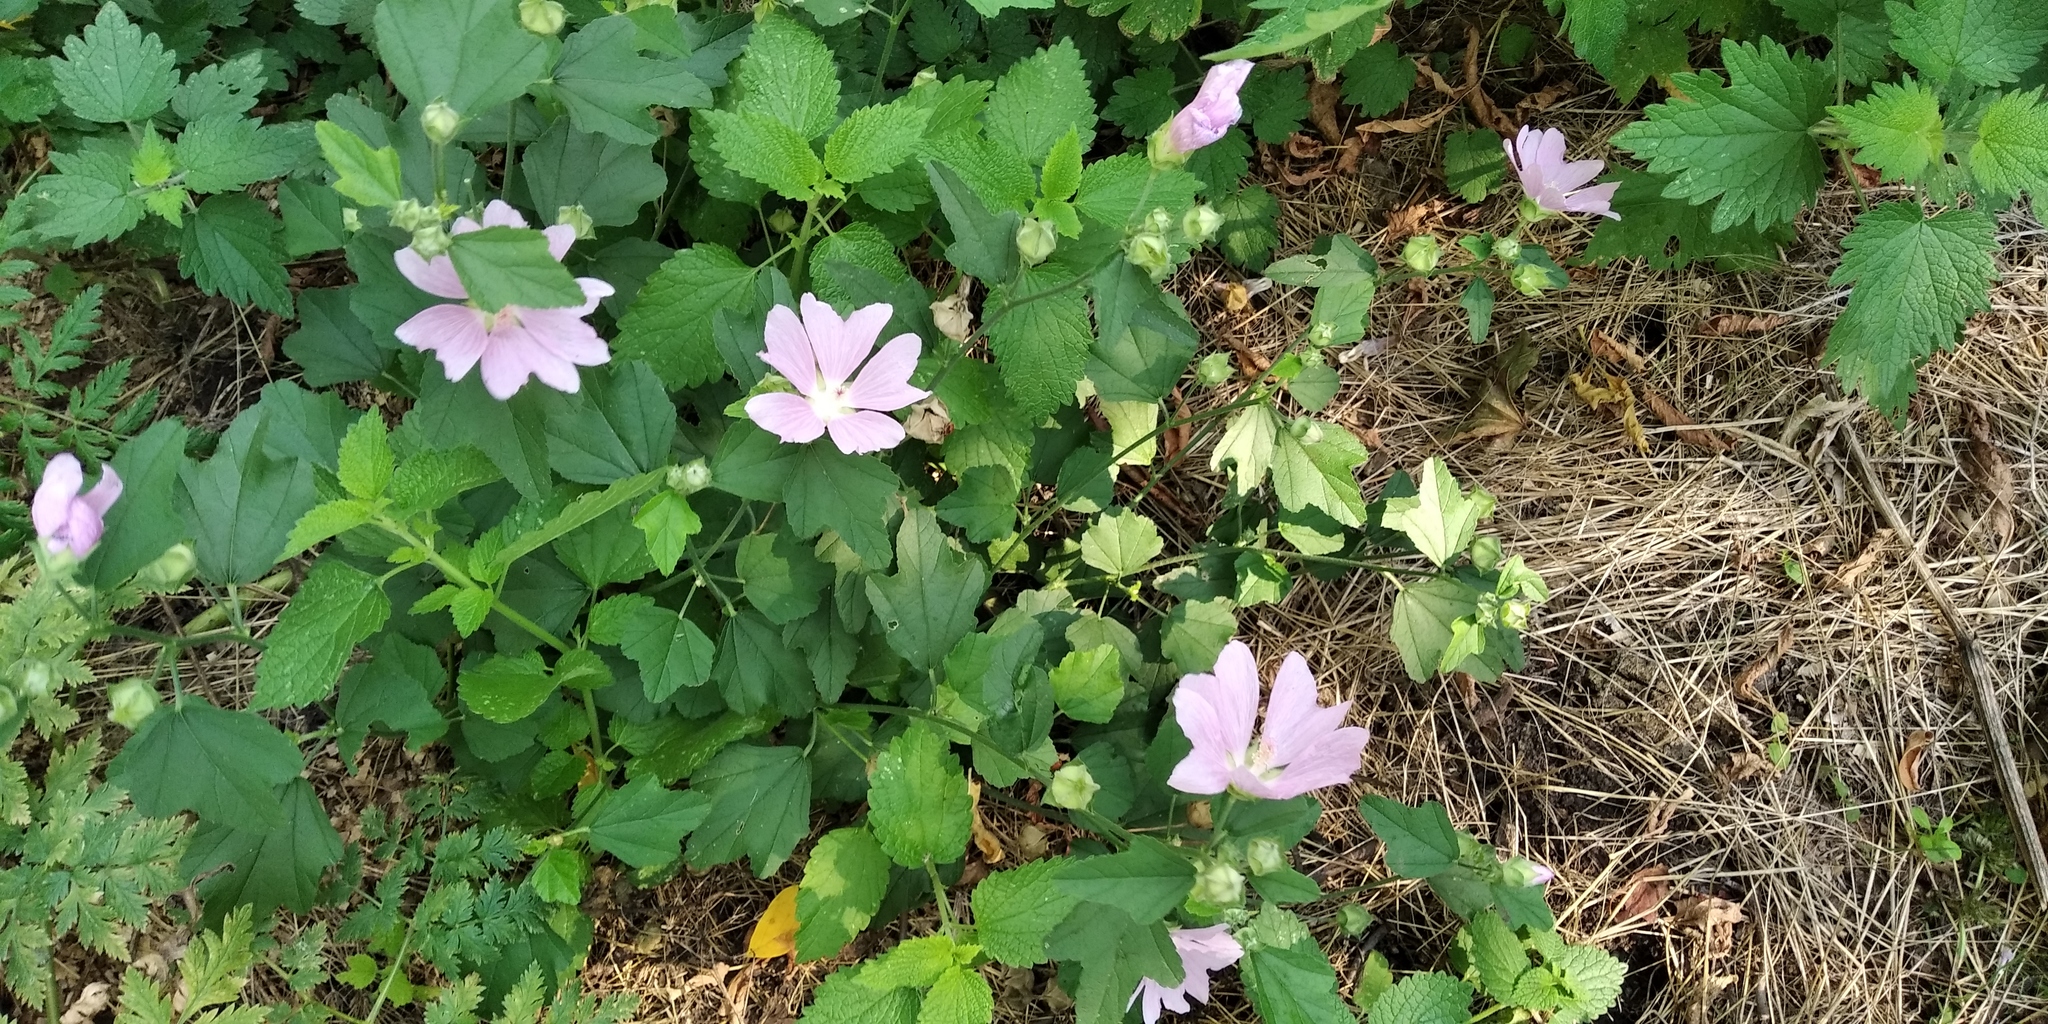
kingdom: Plantae
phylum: Tracheophyta
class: Magnoliopsida
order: Malvales
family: Malvaceae
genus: Malva
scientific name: Malva thuringiaca
